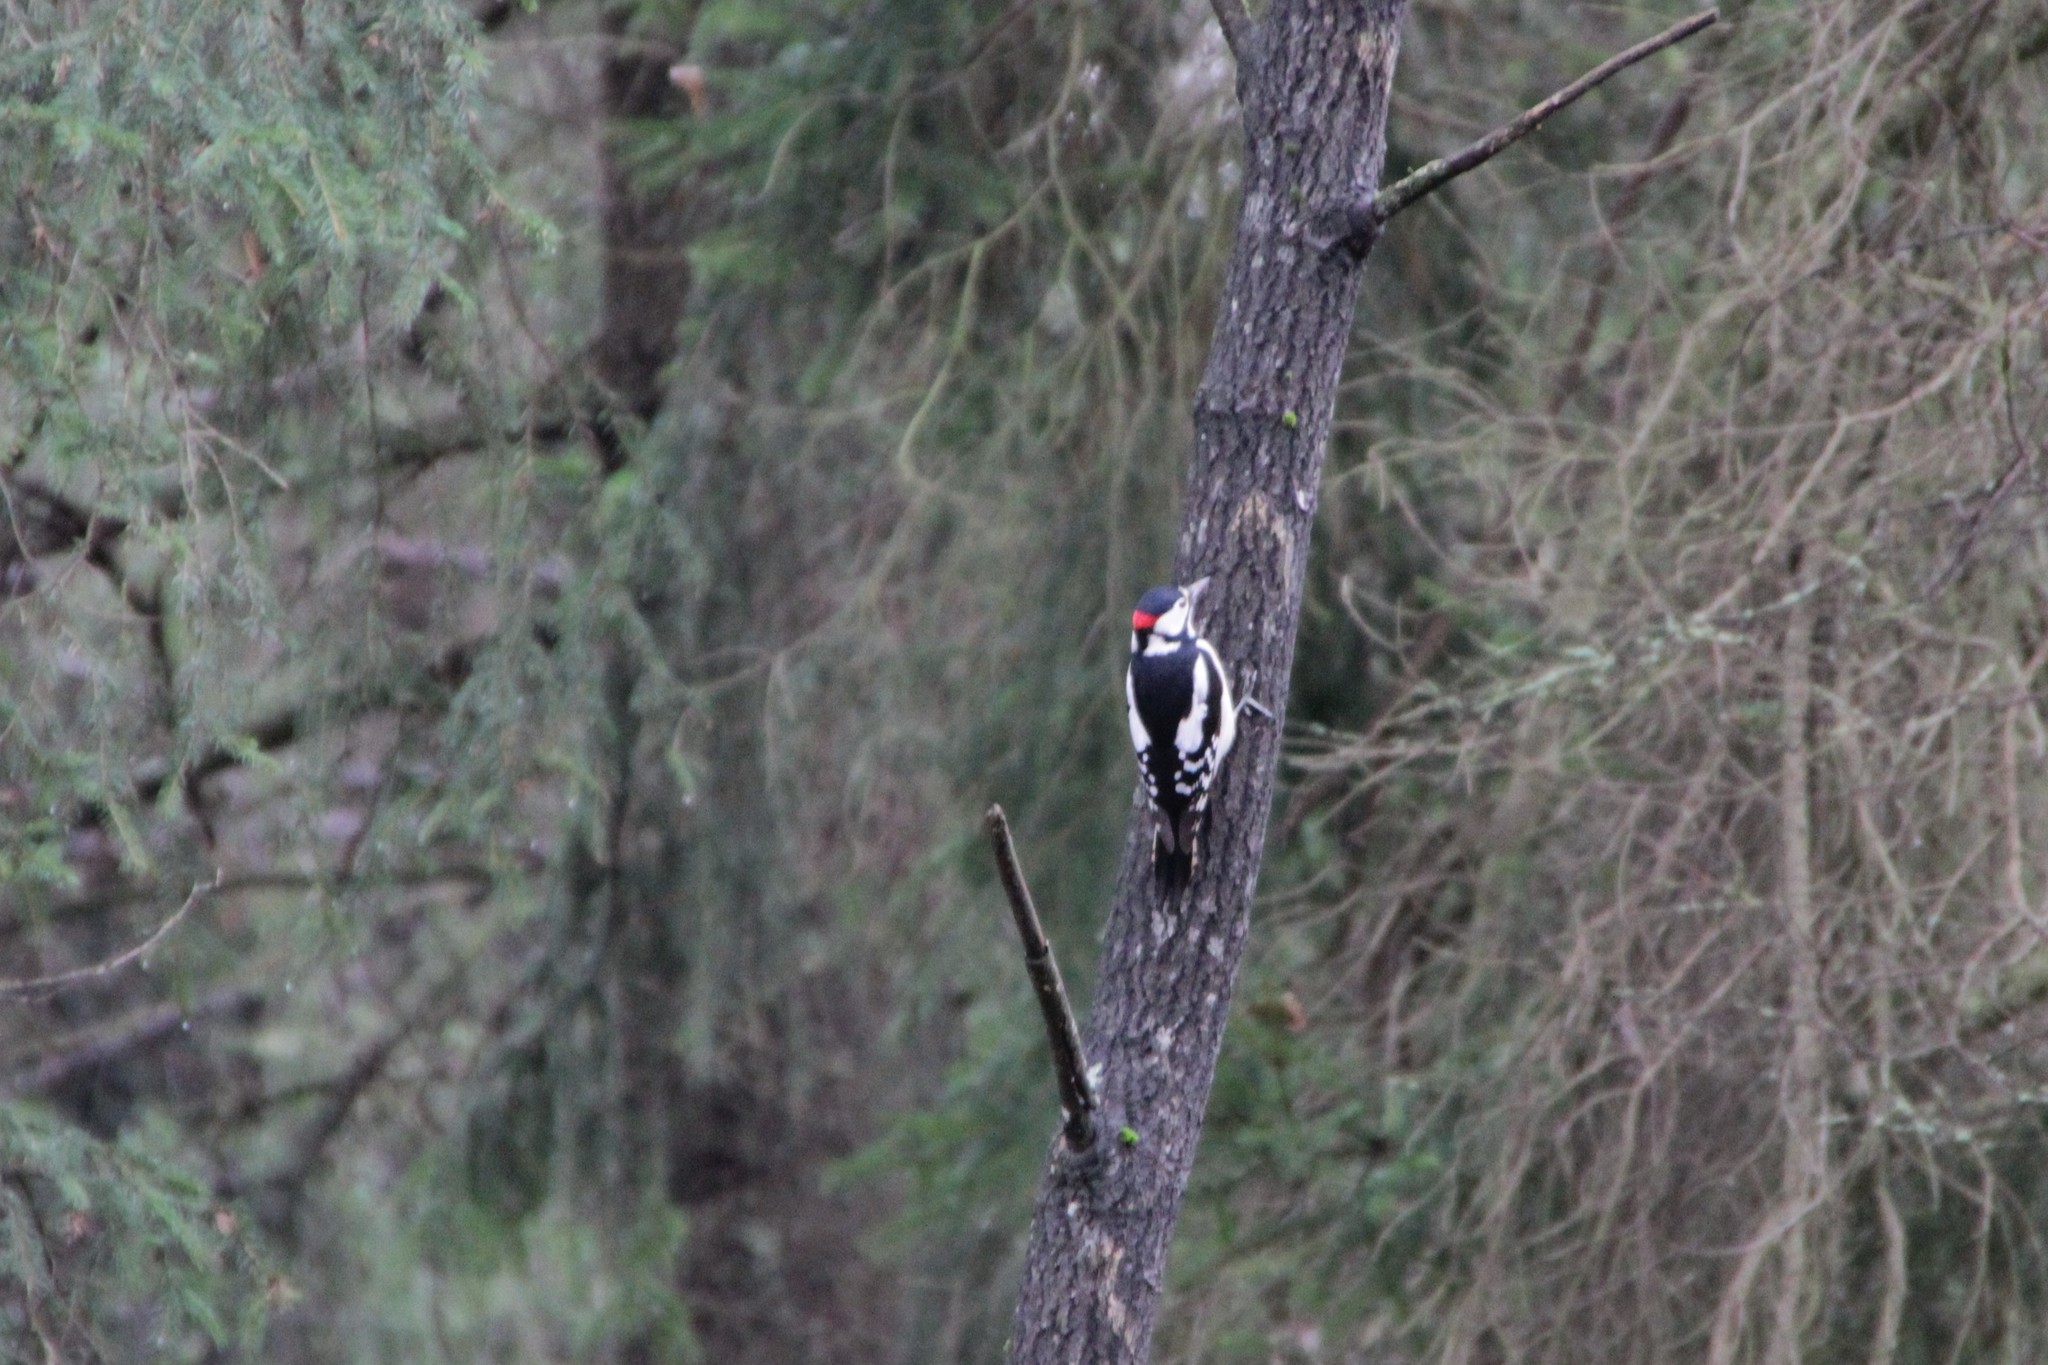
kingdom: Animalia
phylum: Chordata
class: Aves
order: Piciformes
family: Picidae
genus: Dendrocopos
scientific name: Dendrocopos major
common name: Great spotted woodpecker
